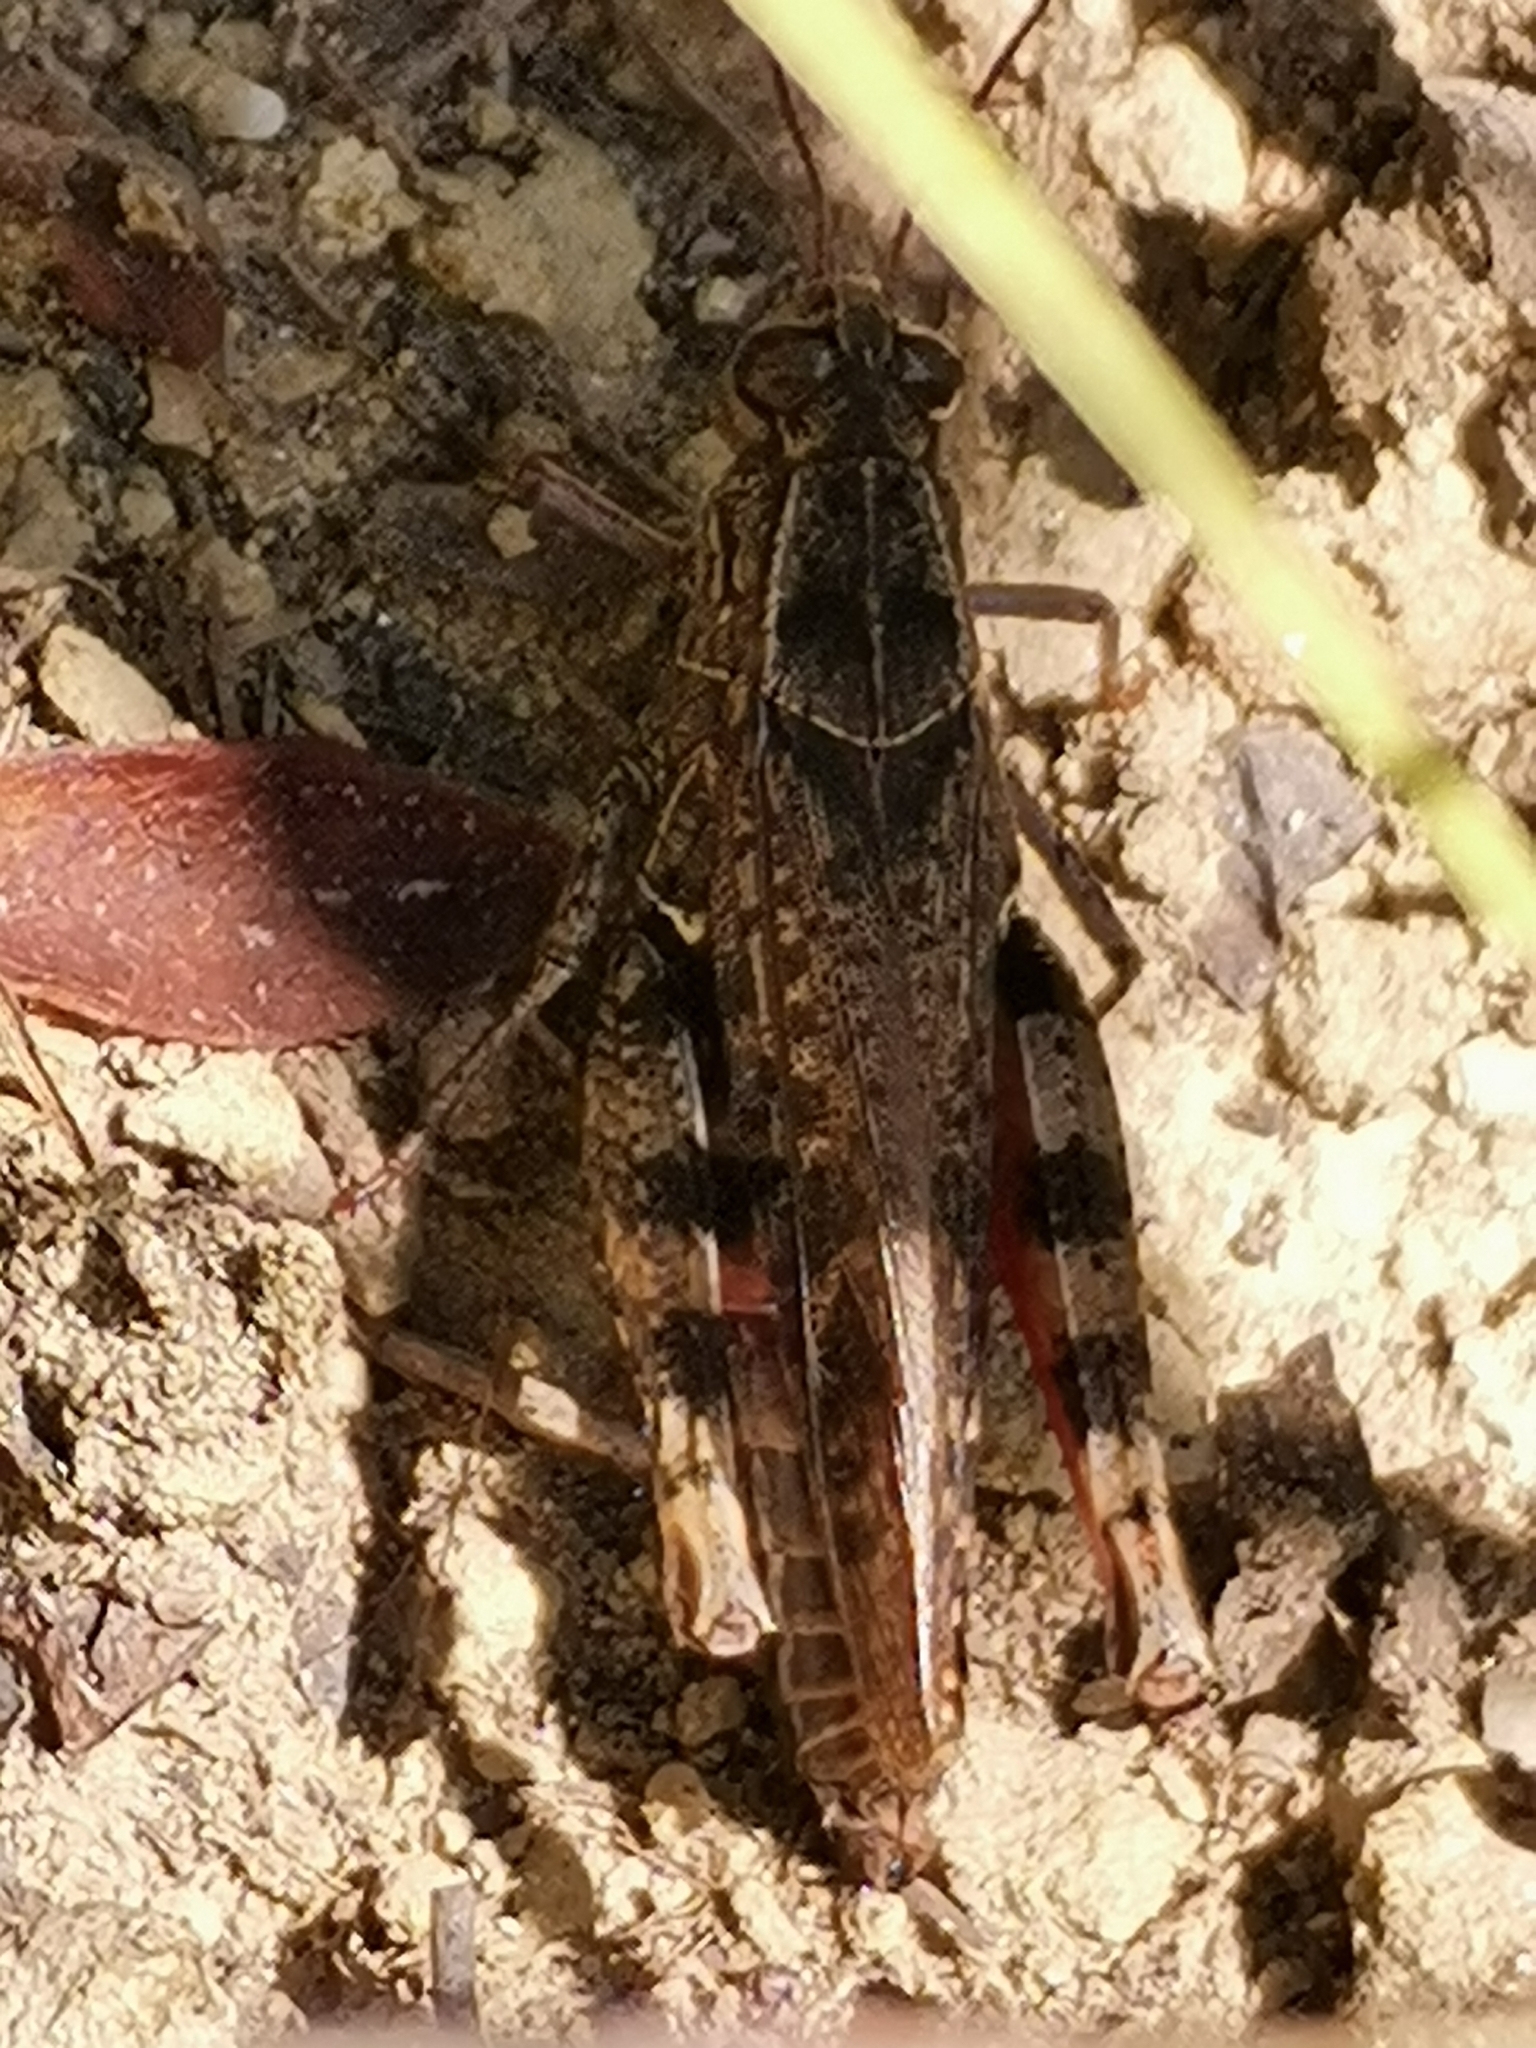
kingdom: Animalia
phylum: Arthropoda
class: Insecta
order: Orthoptera
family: Acrididae
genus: Calliptamus
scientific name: Calliptamus italicus
